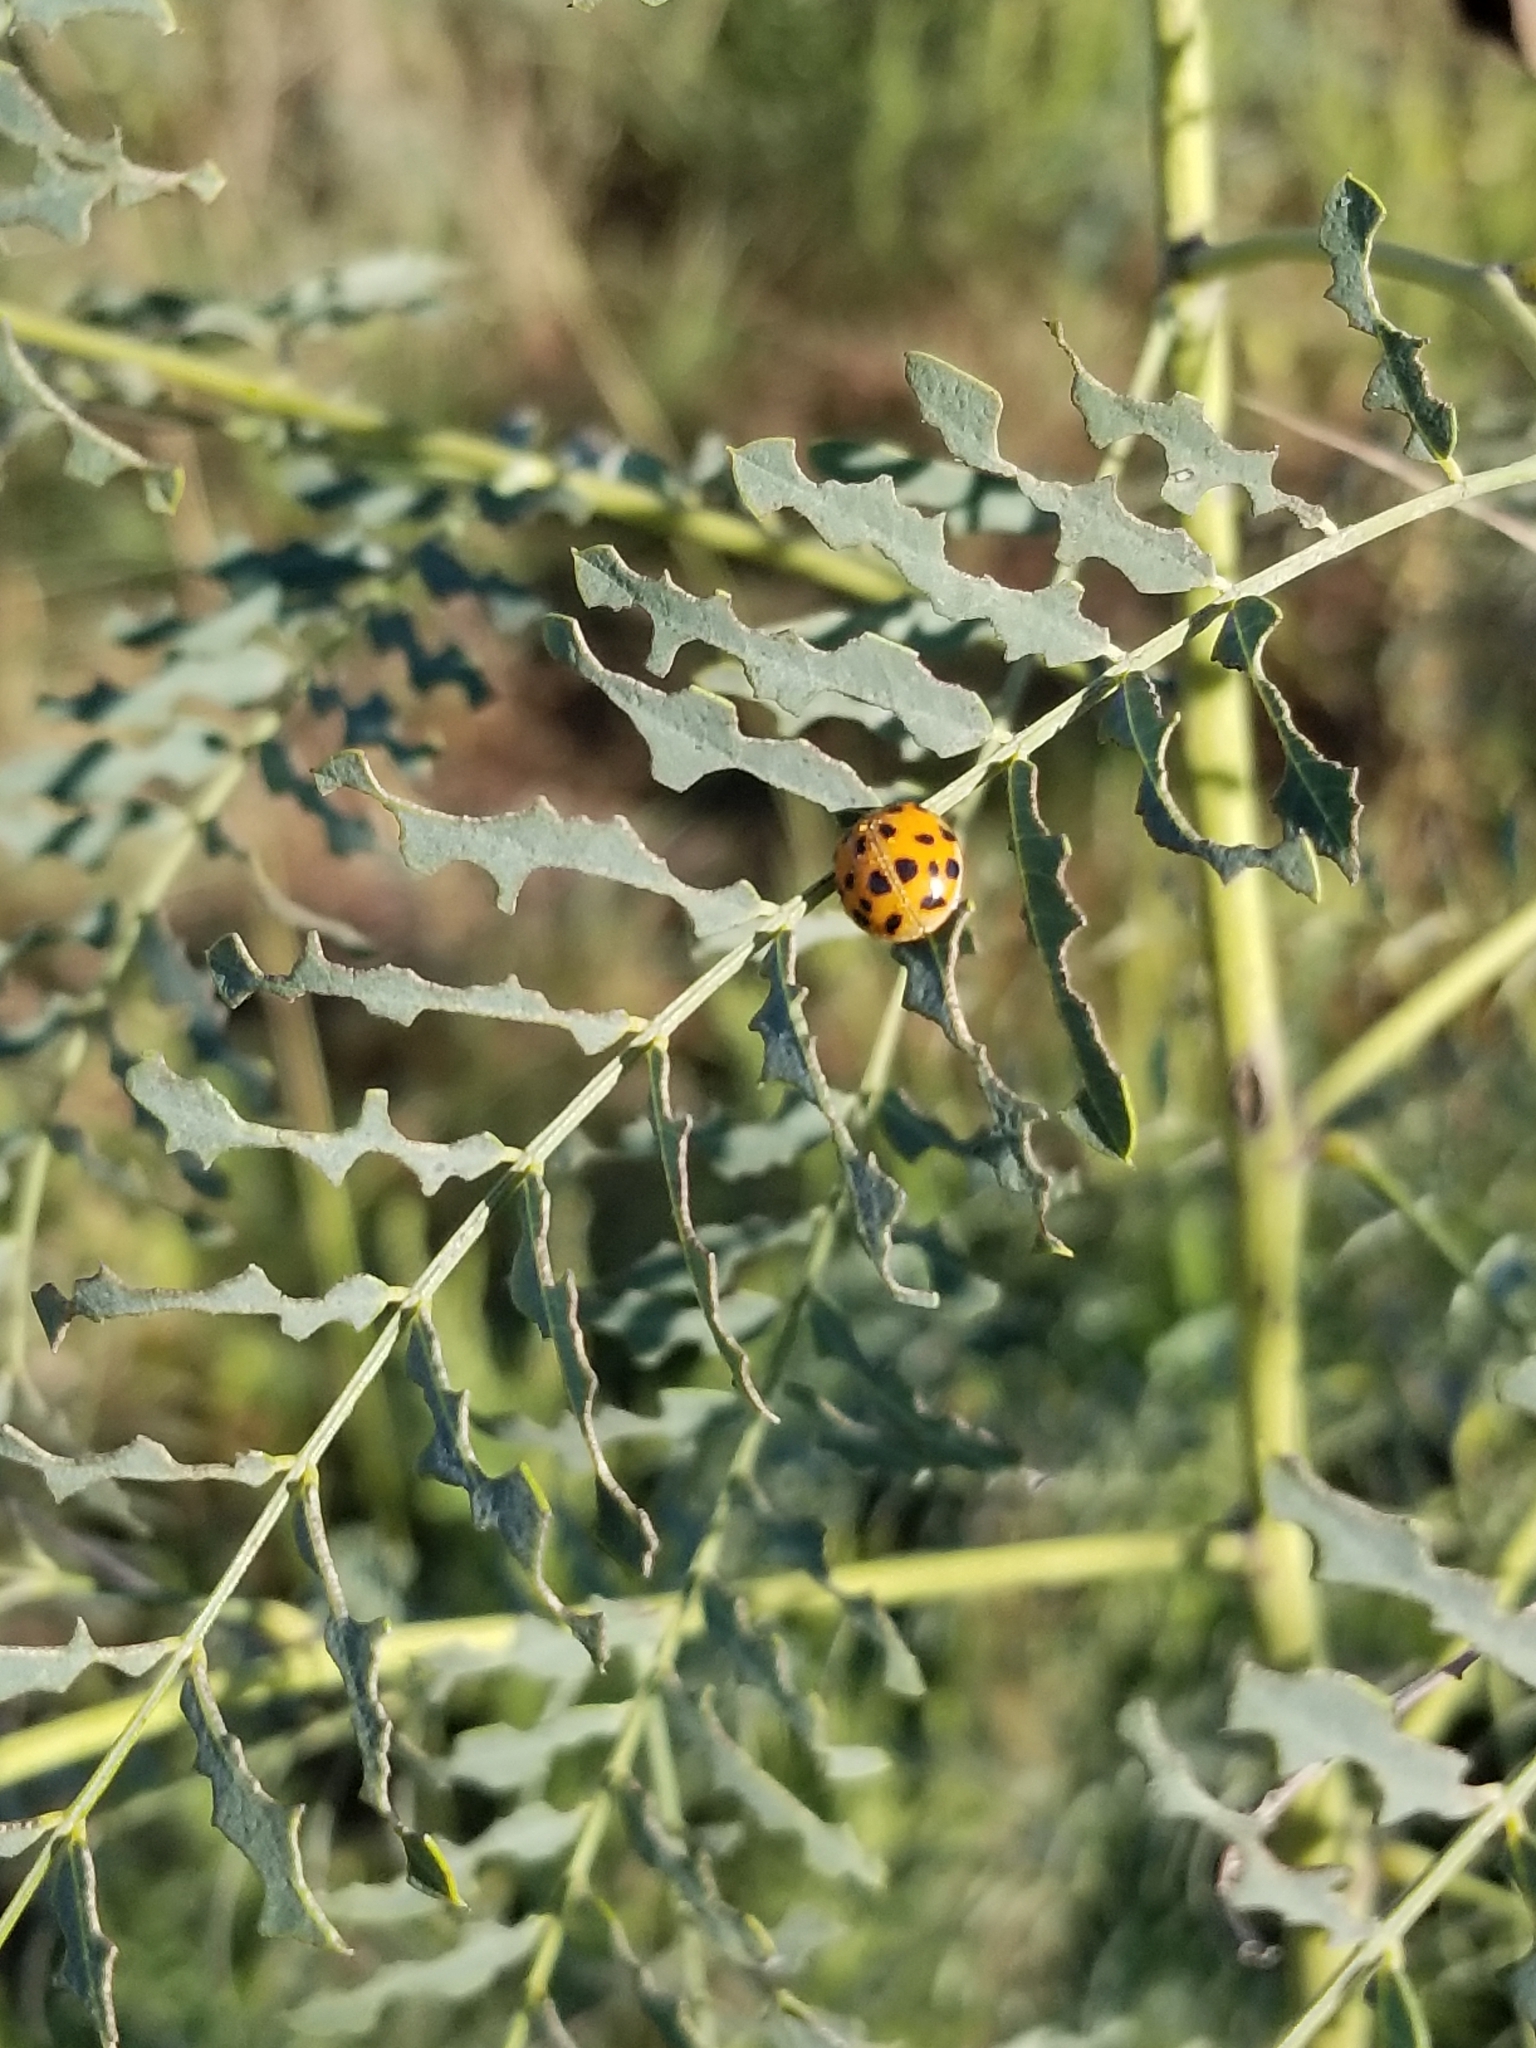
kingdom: Animalia
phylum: Arthropoda
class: Insecta
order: Coleoptera
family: Coccinellidae
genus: Harmonia
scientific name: Harmonia axyridis
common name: Harlequin ladybird
